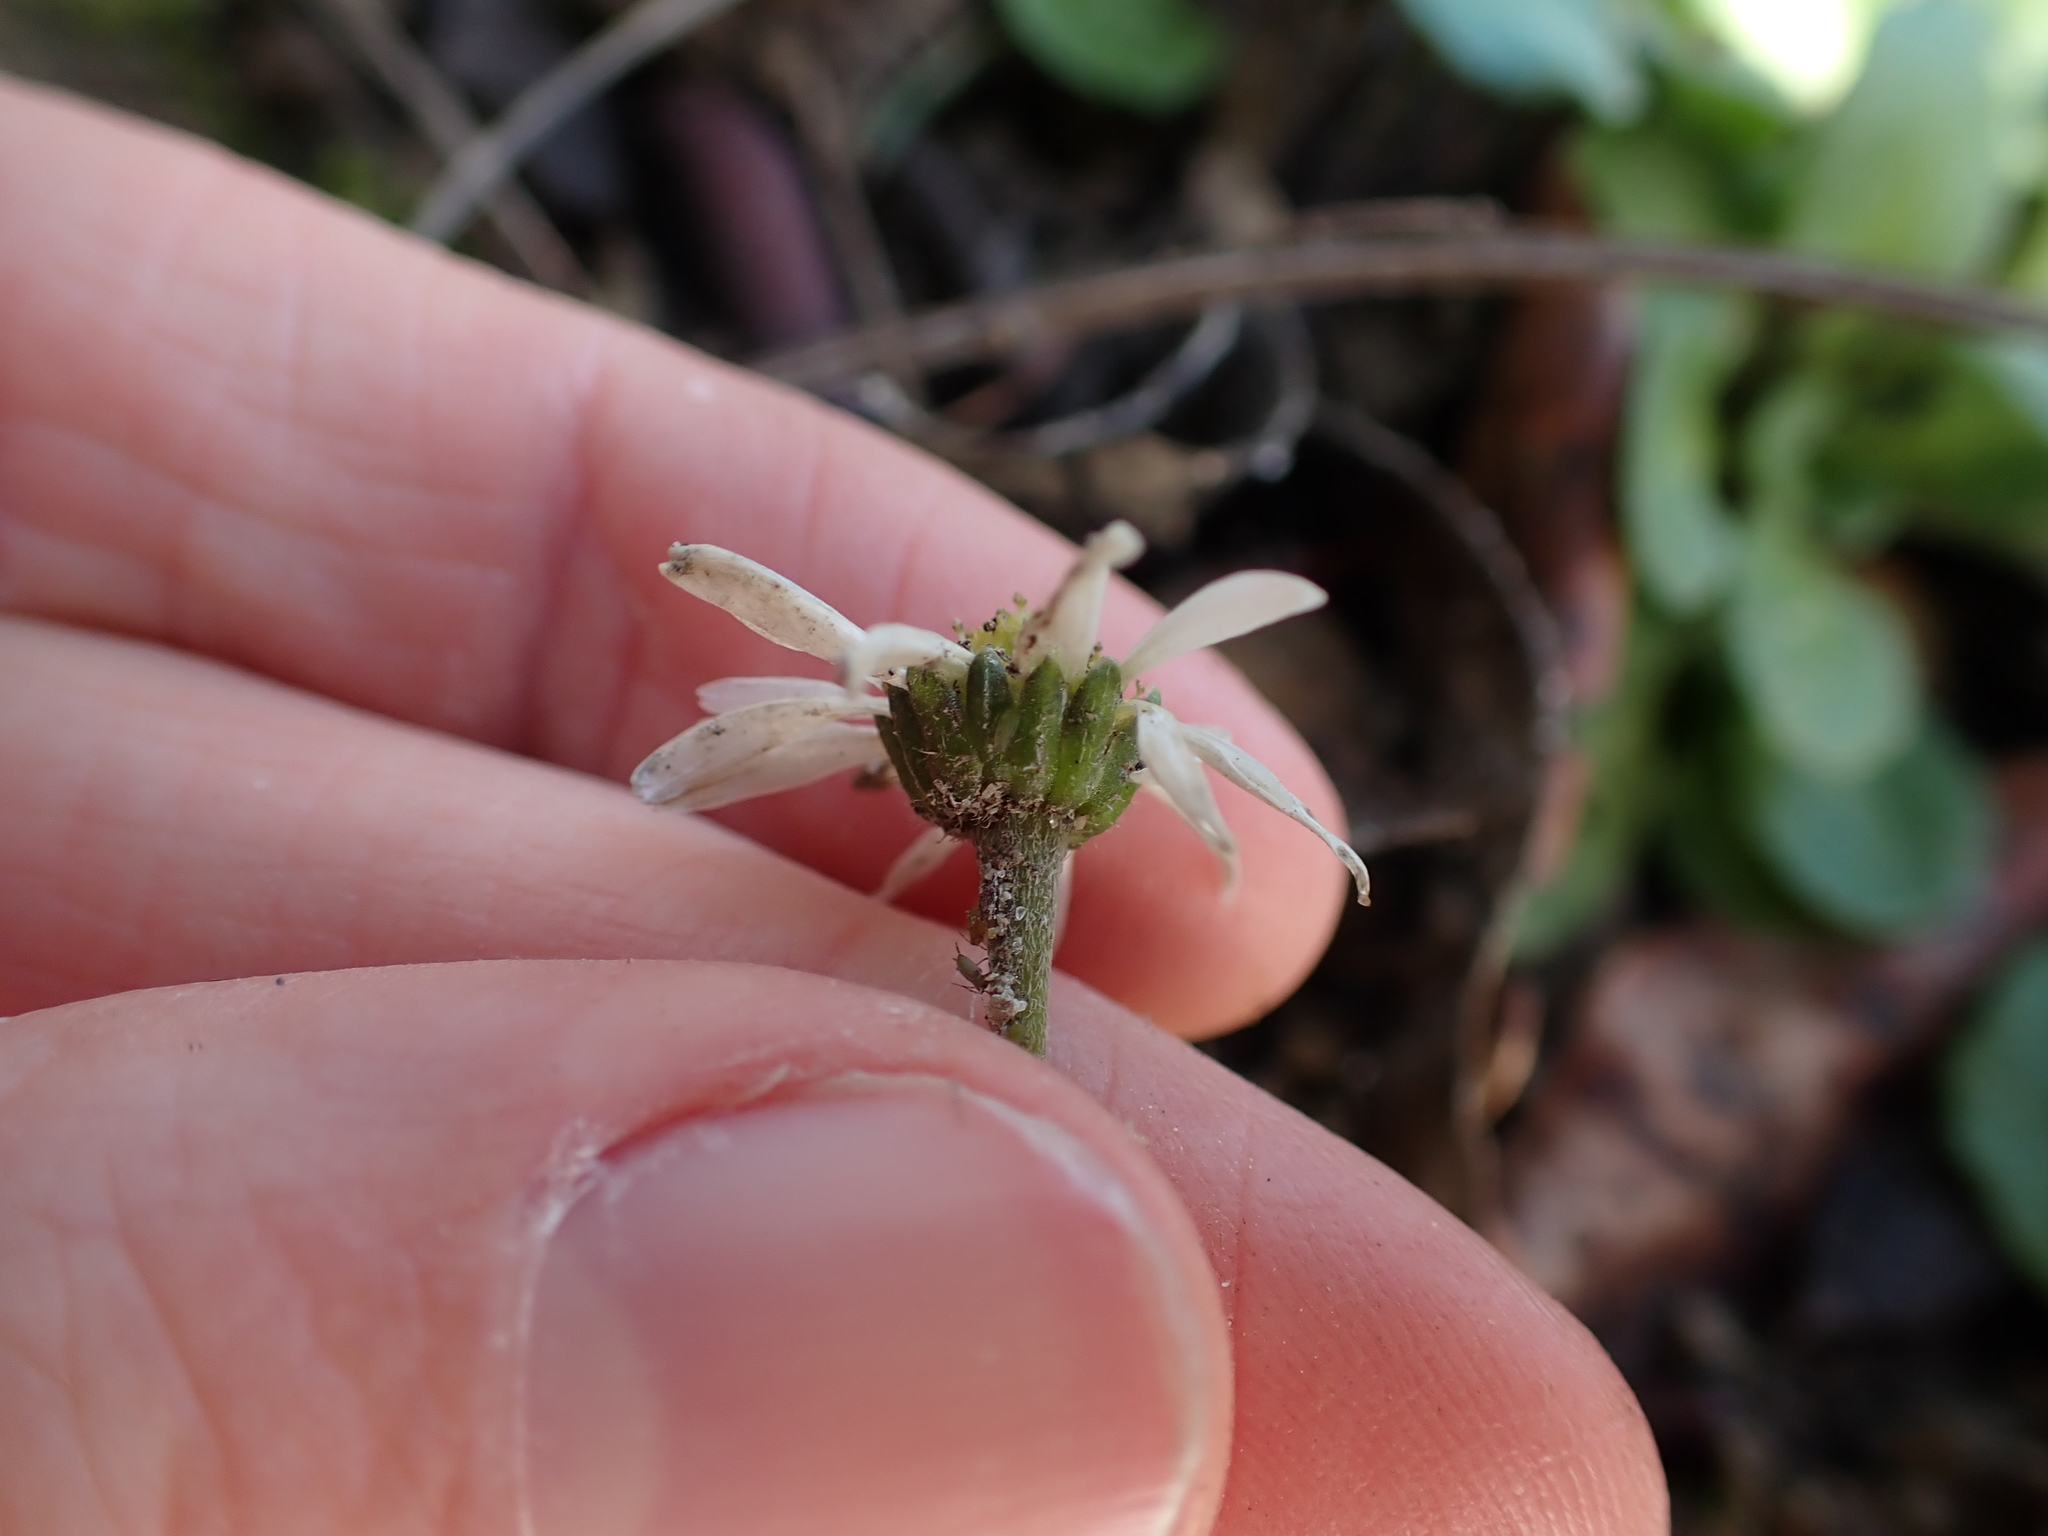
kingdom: Plantae
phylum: Tracheophyta
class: Magnoliopsida
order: Asterales
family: Asteraceae
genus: Bellis
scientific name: Bellis perennis
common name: Lawndaisy
